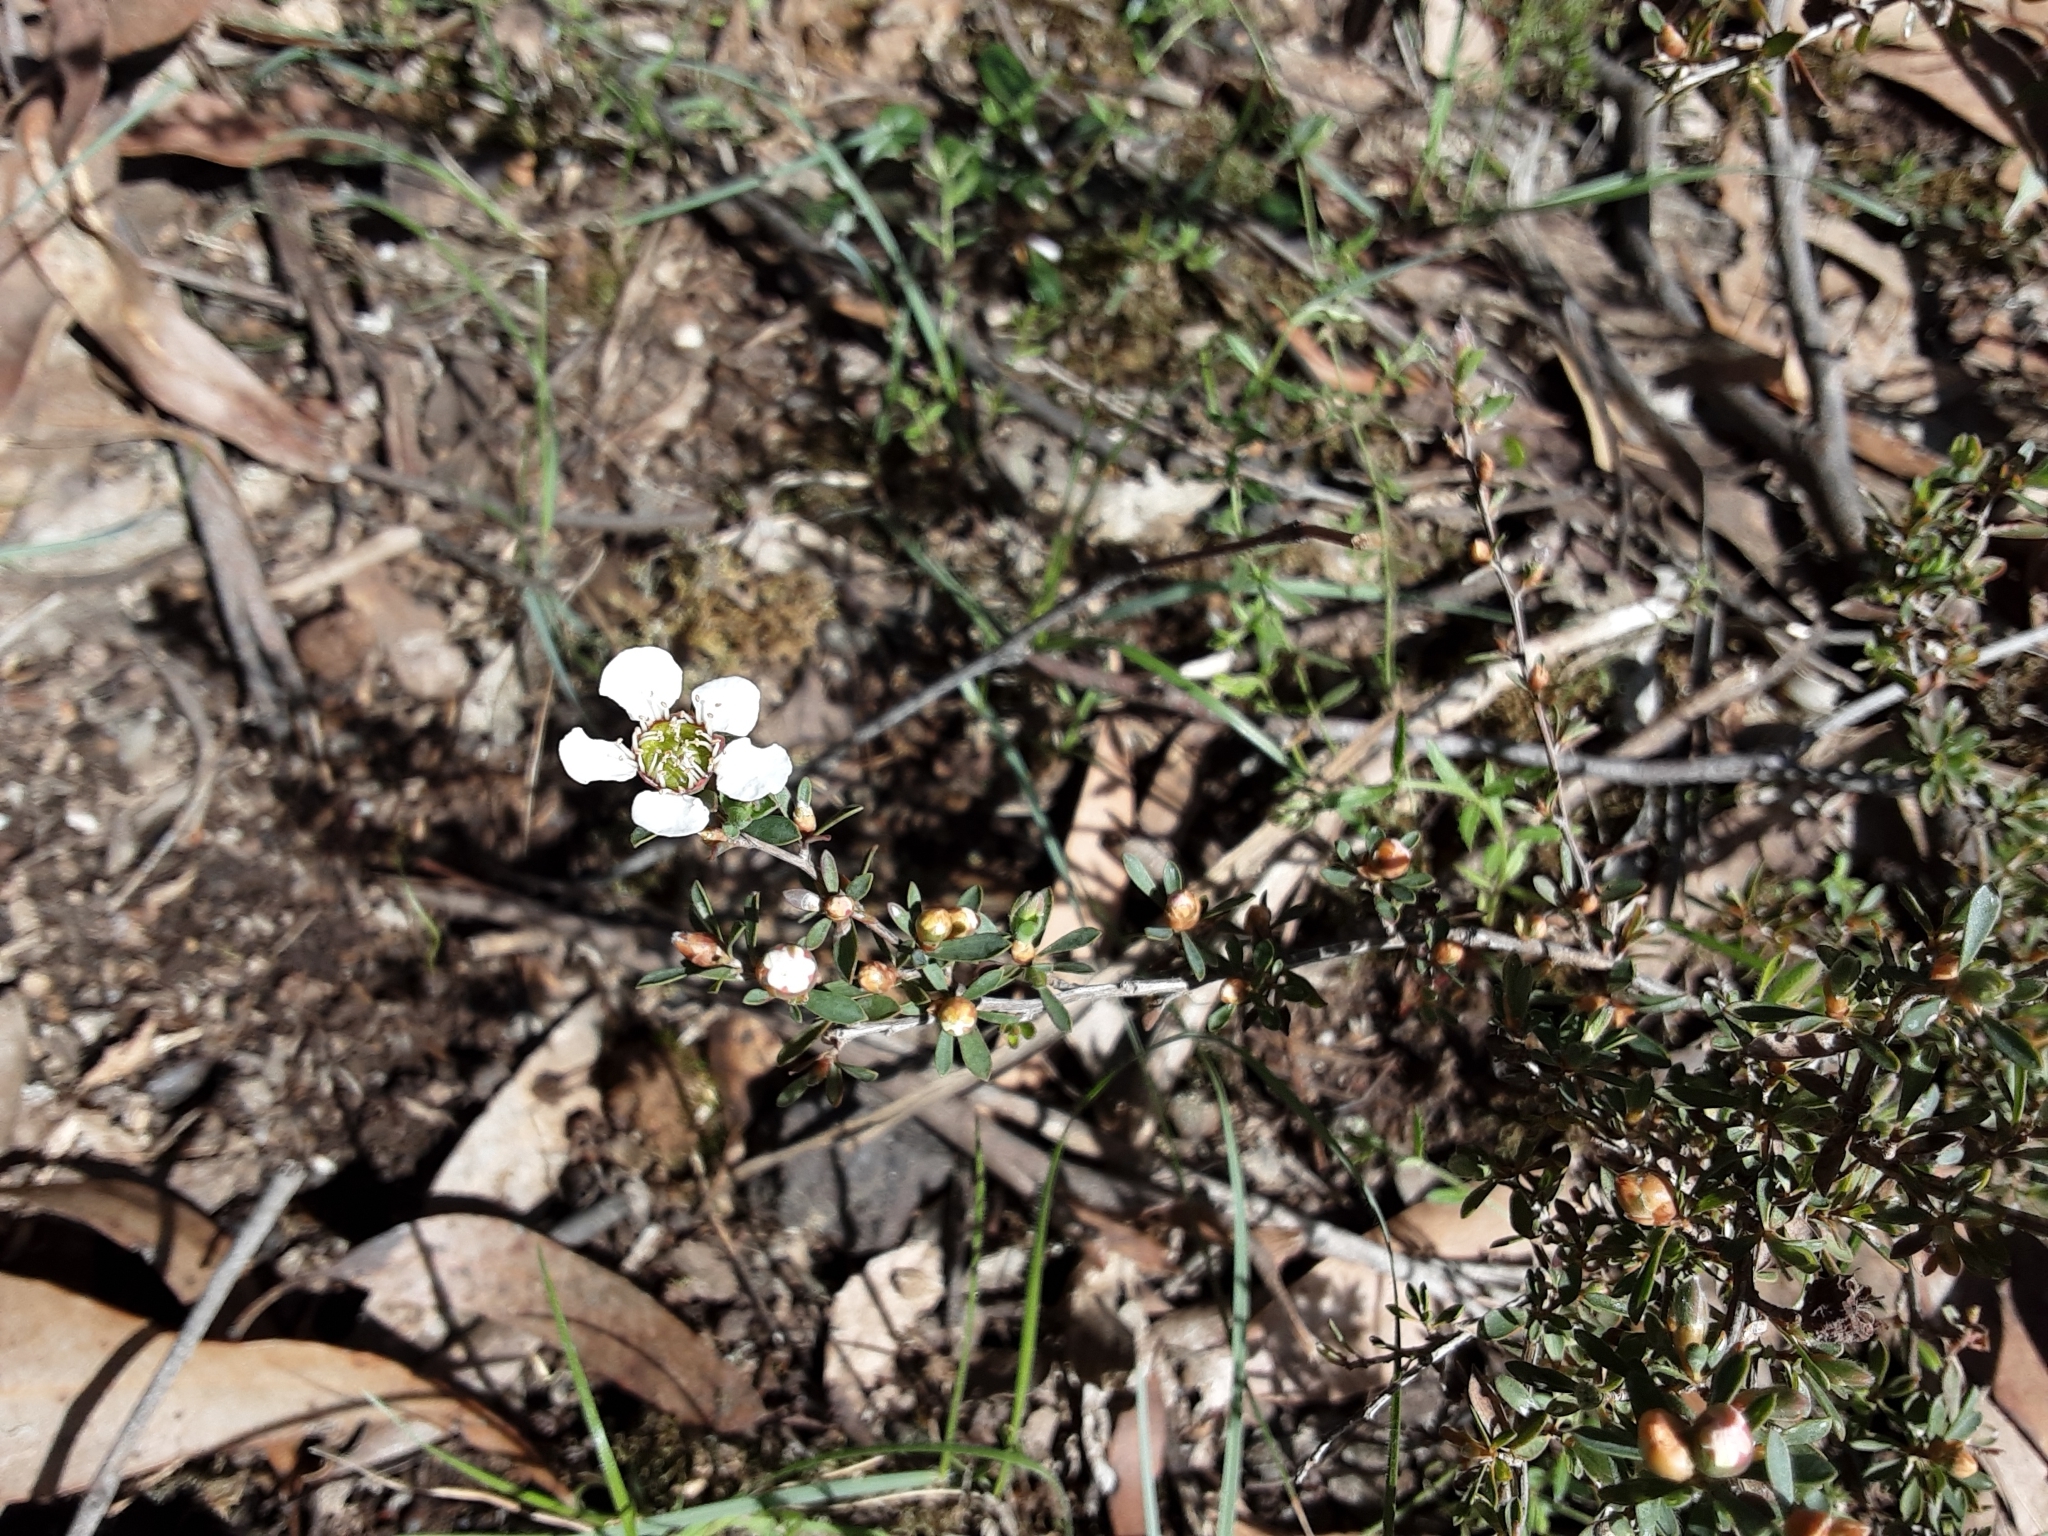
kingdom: Plantae
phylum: Tracheophyta
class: Magnoliopsida
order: Myrtales
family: Myrtaceae
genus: Leptospermum
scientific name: Leptospermum myrsinoides
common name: Heath teatree
